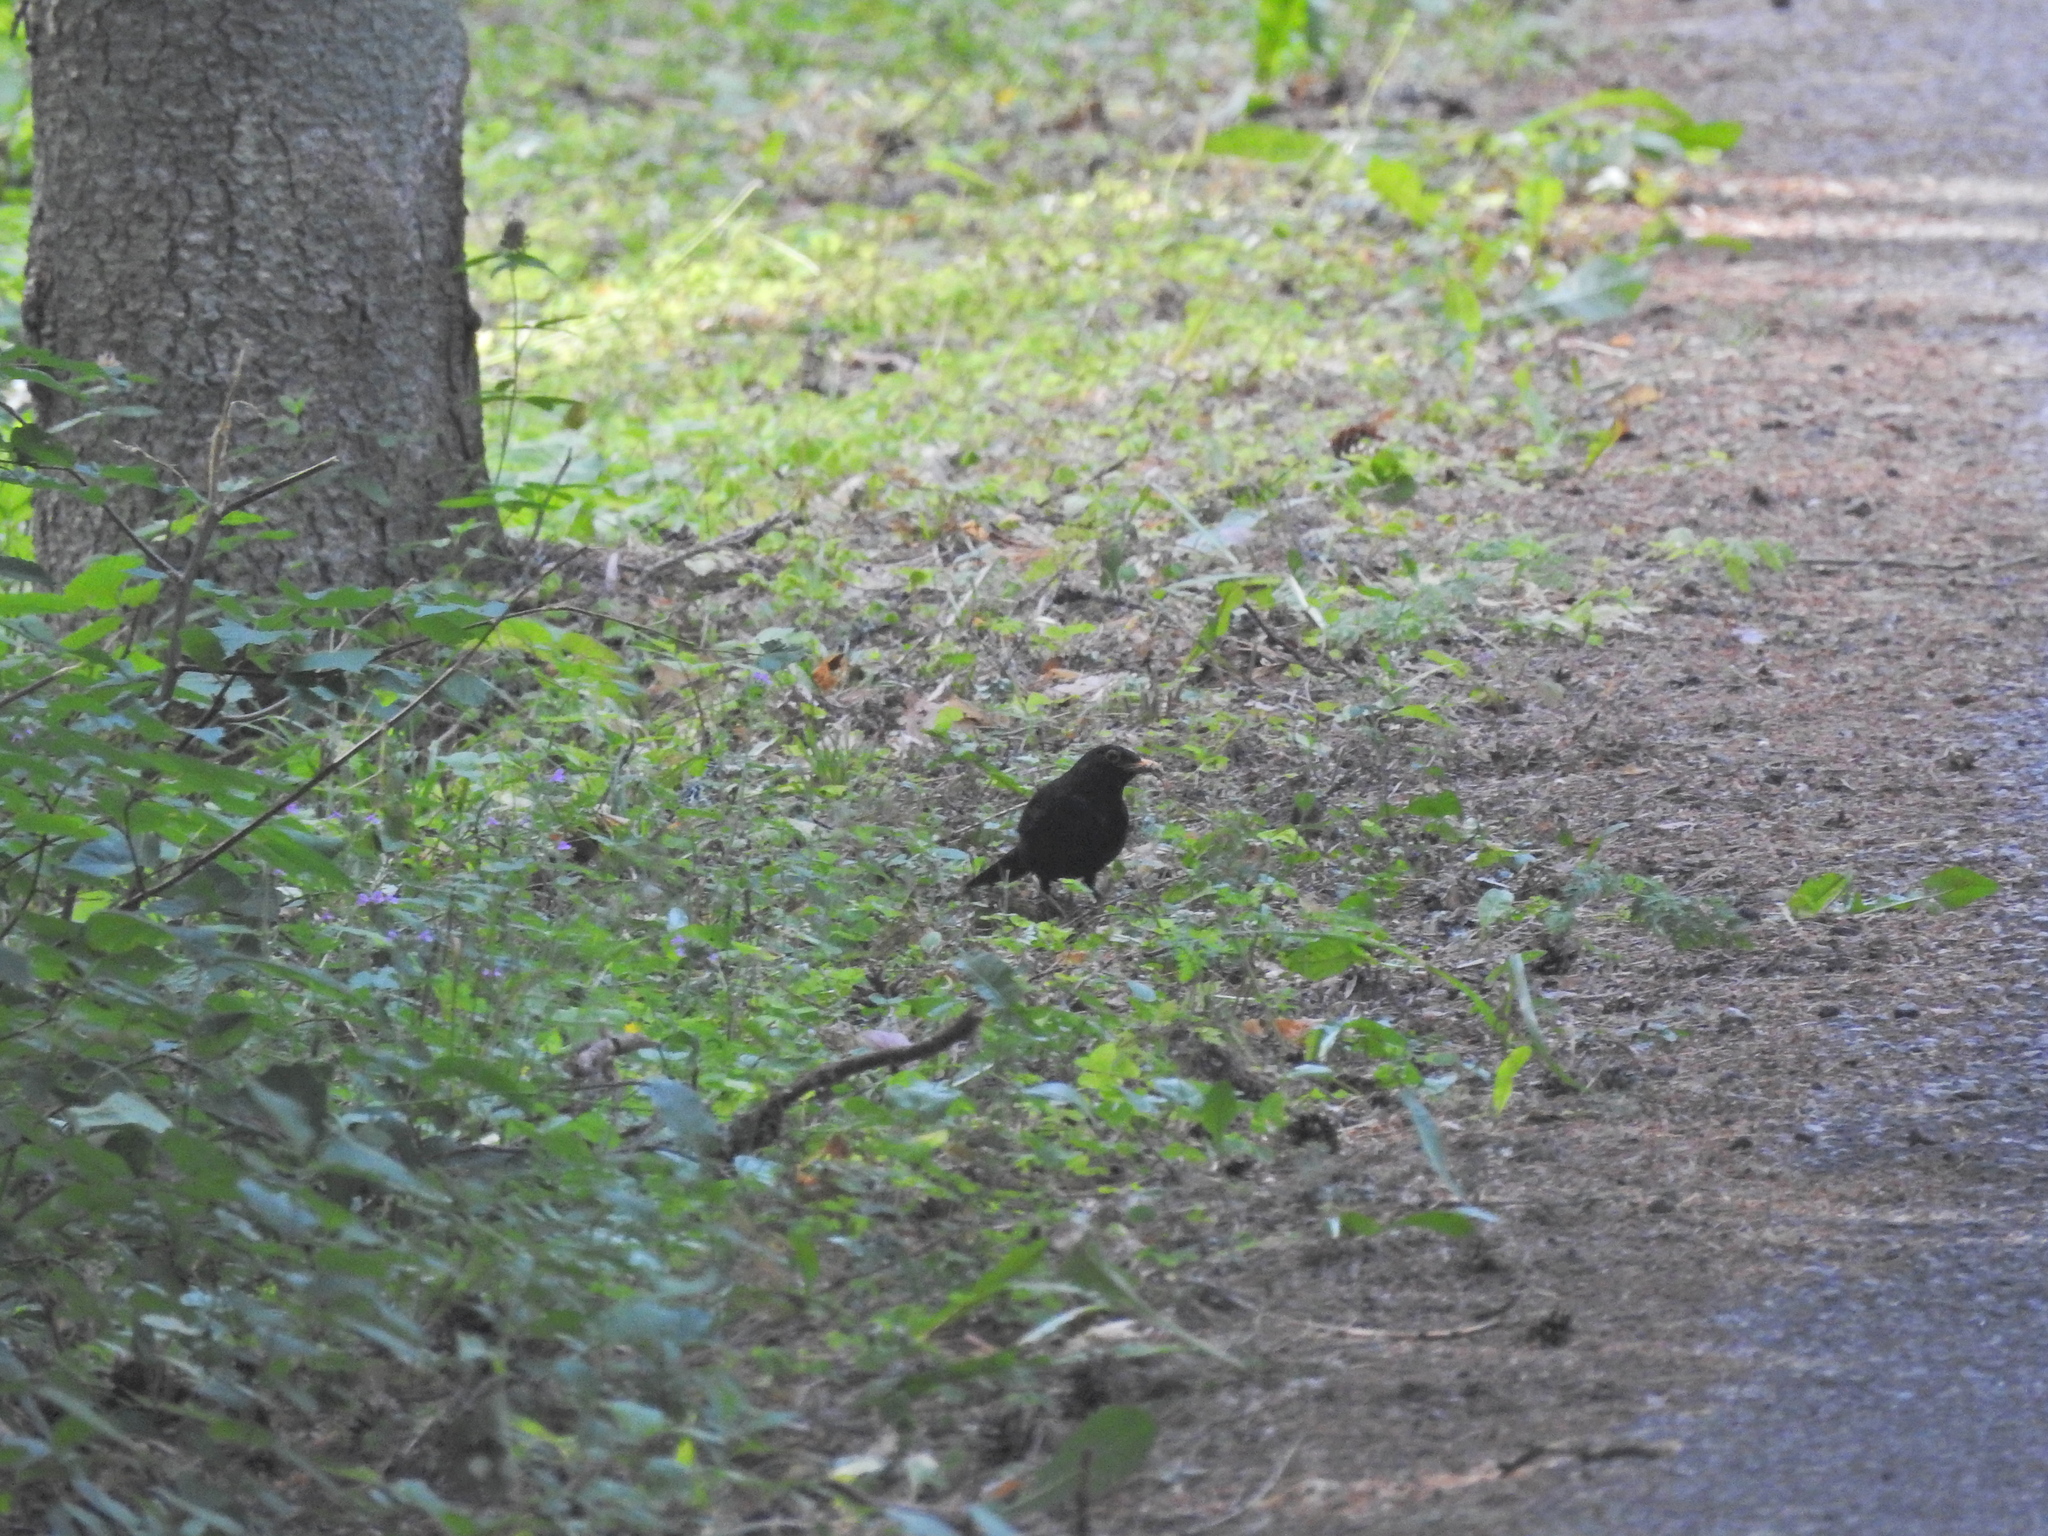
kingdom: Animalia
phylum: Chordata
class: Aves
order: Passeriformes
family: Turdidae
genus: Turdus
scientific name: Turdus merula
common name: Common blackbird
